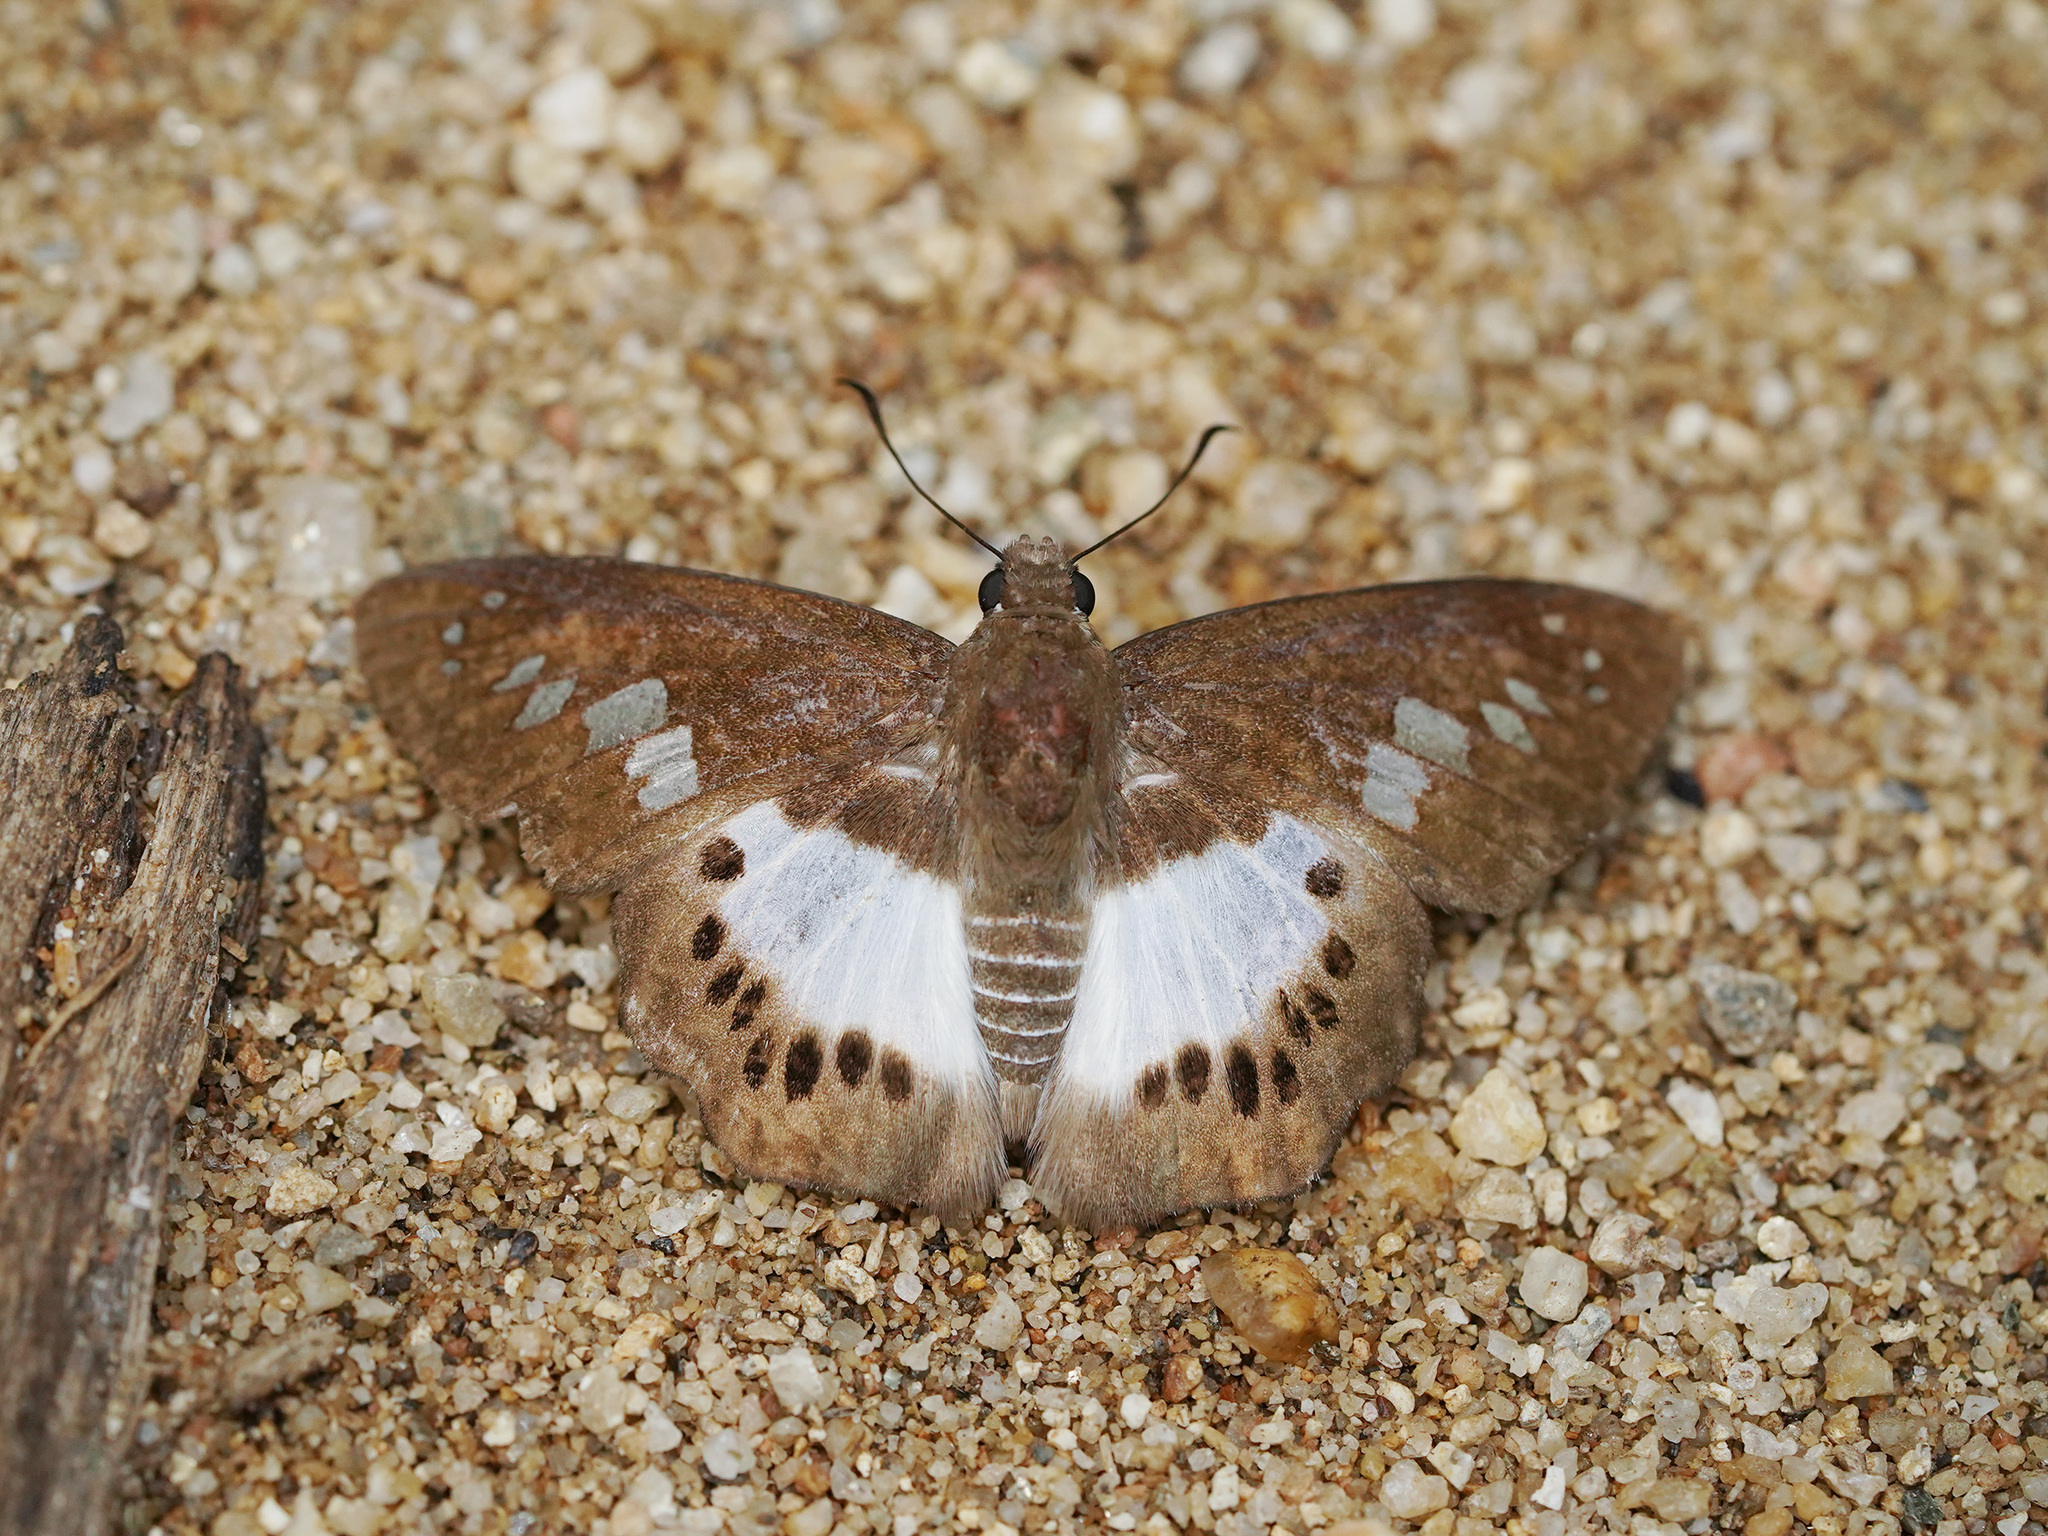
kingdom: Animalia
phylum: Arthropoda
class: Insecta
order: Lepidoptera
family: Hesperiidae
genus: Seseria
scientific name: Seseria strigata
